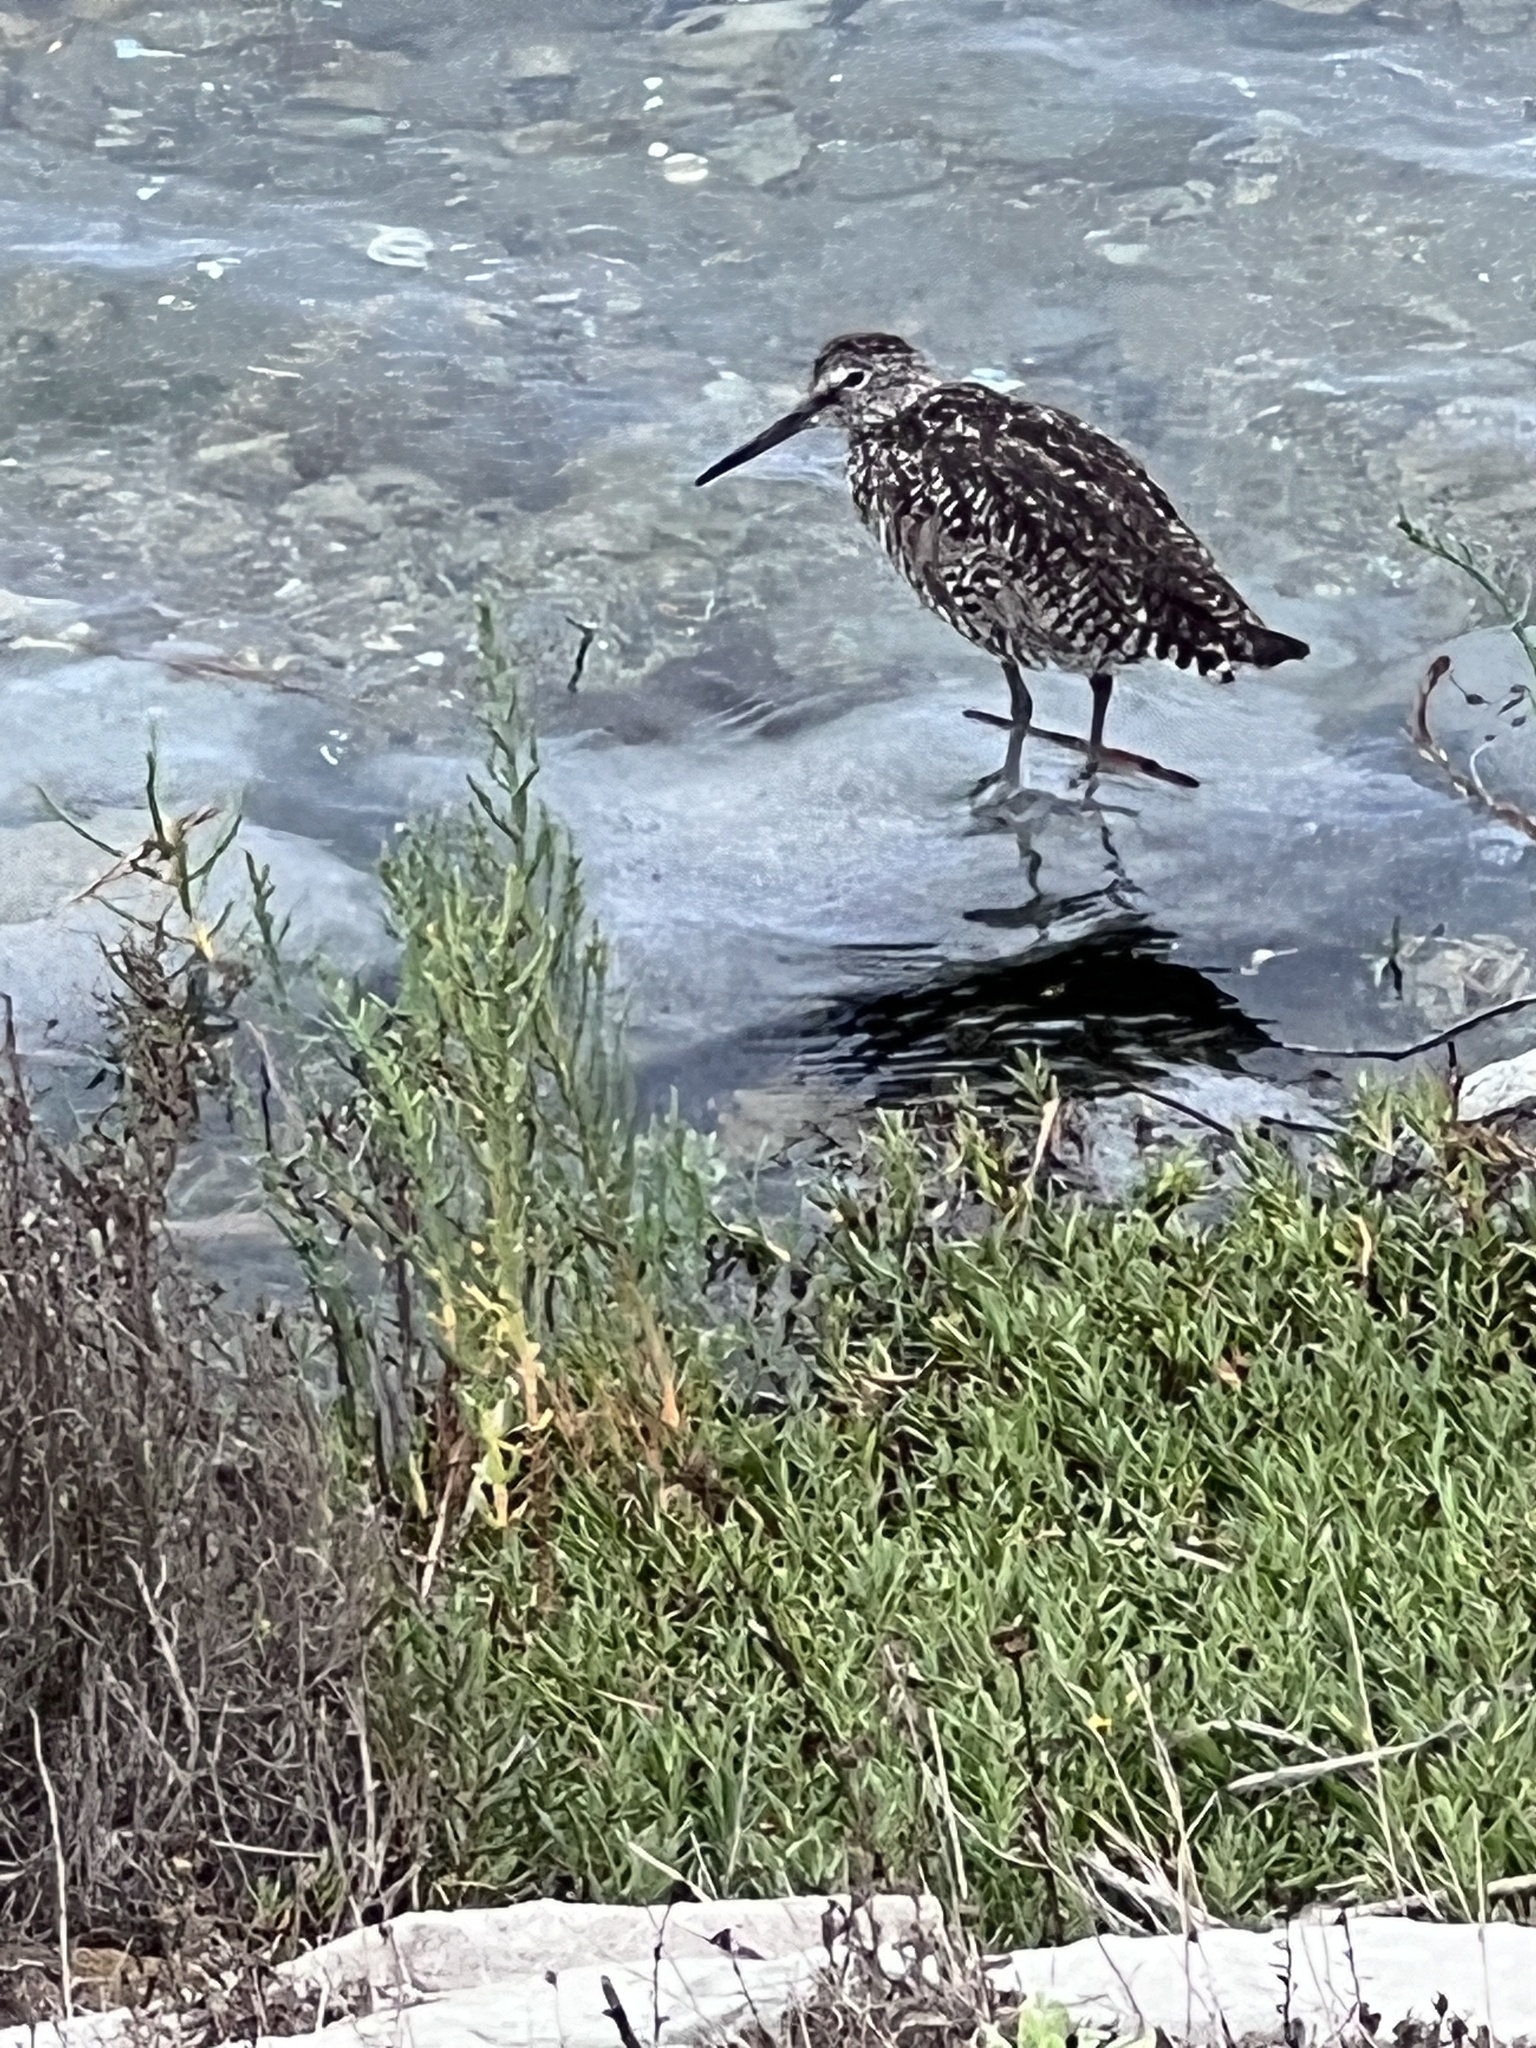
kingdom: Animalia
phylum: Chordata
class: Aves
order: Charadriiformes
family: Scolopacidae
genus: Tringa
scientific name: Tringa semipalmata
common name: Willet
